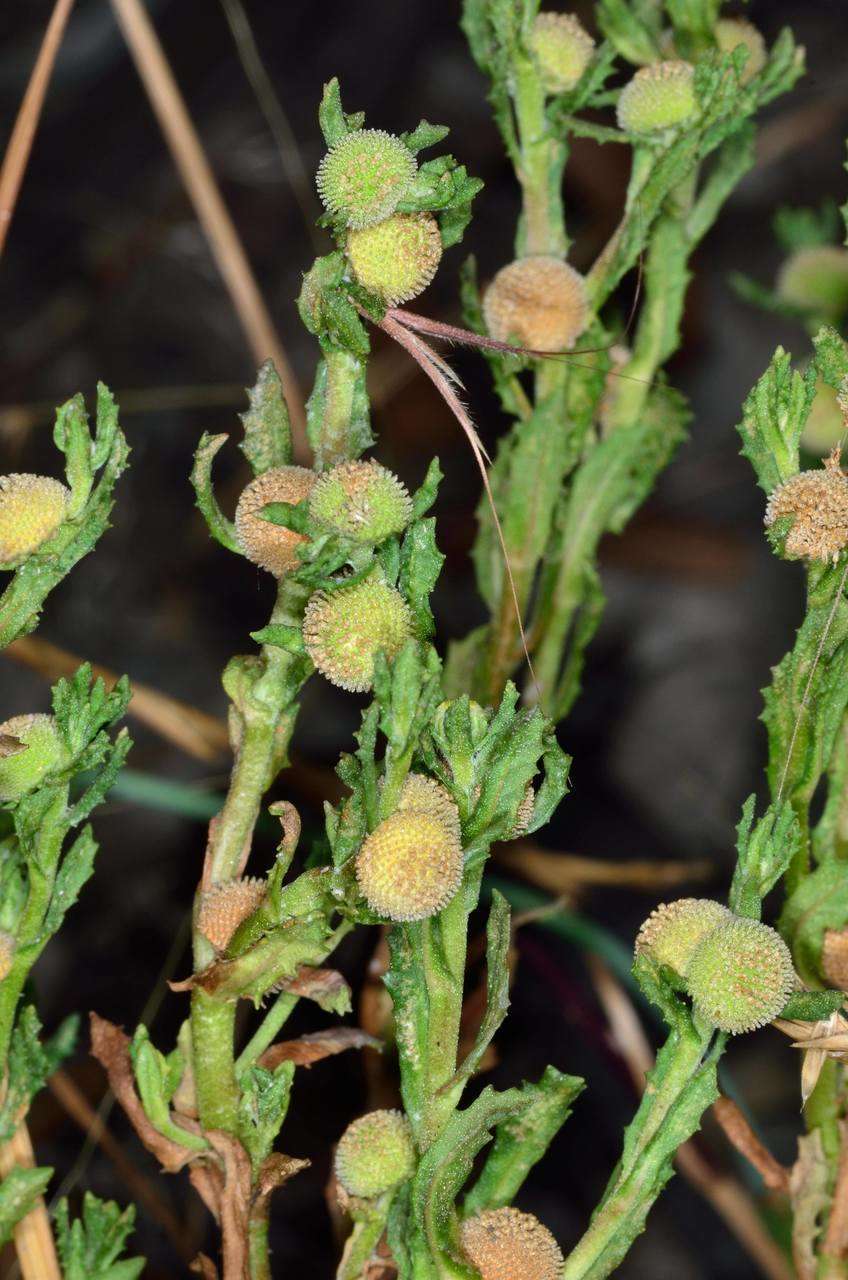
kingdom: Plantae
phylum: Tracheophyta
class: Magnoliopsida
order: Asterales
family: Asteraceae
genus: Centipeda
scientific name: Centipeda cunninghamii
